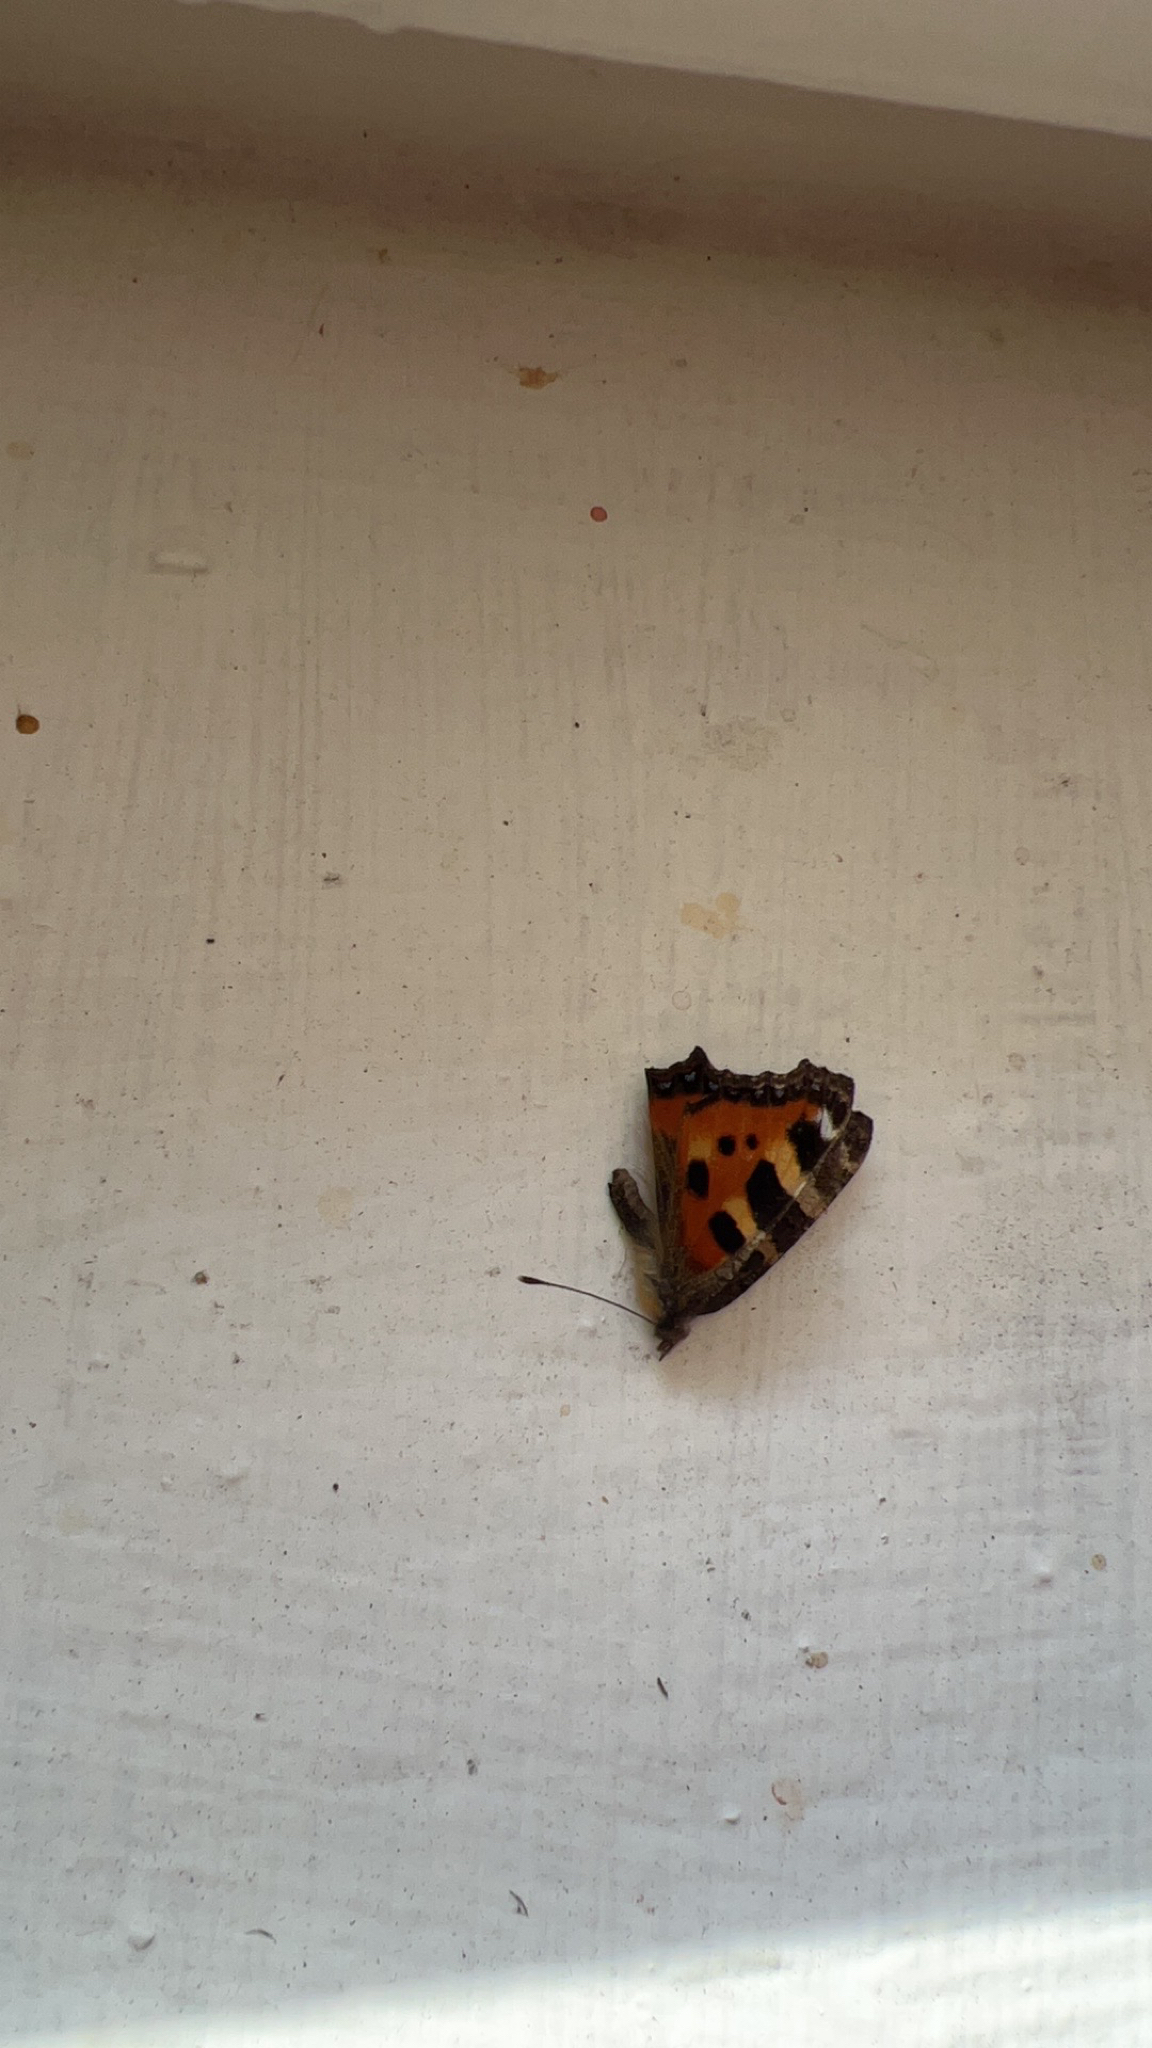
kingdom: Animalia
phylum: Arthropoda
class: Insecta
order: Lepidoptera
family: Nymphalidae
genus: Aglais
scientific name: Aglais urticae
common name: Small tortoiseshell
